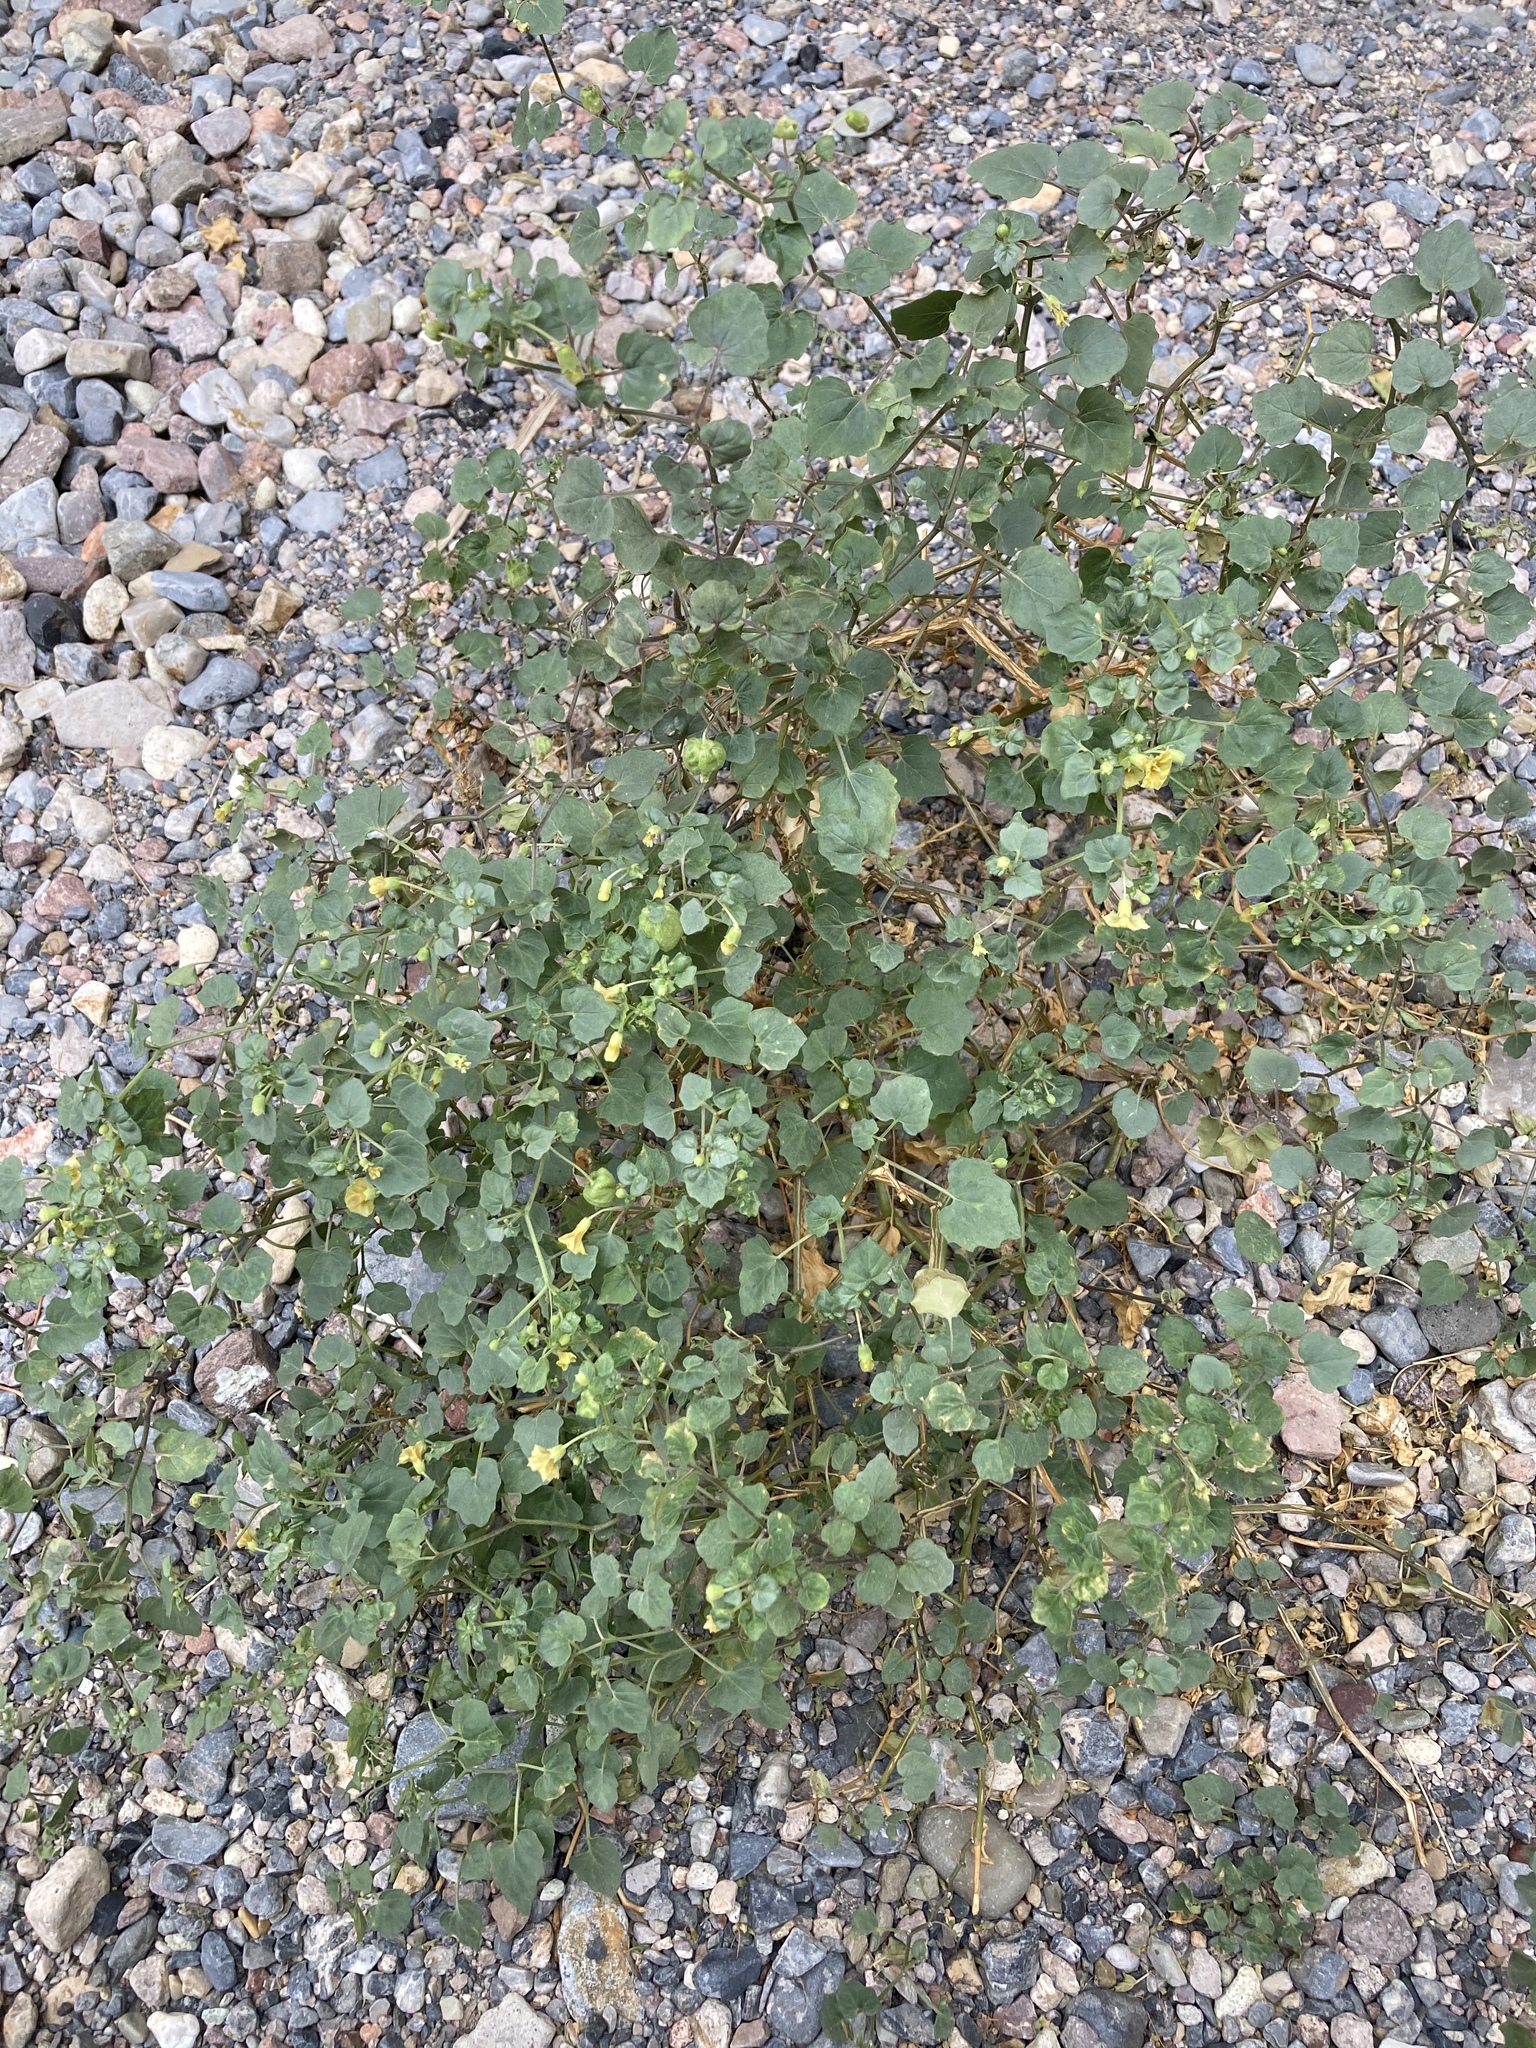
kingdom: Plantae
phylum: Tracheophyta
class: Magnoliopsida
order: Solanales
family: Solanaceae
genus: Physalis
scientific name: Physalis crassifolia
